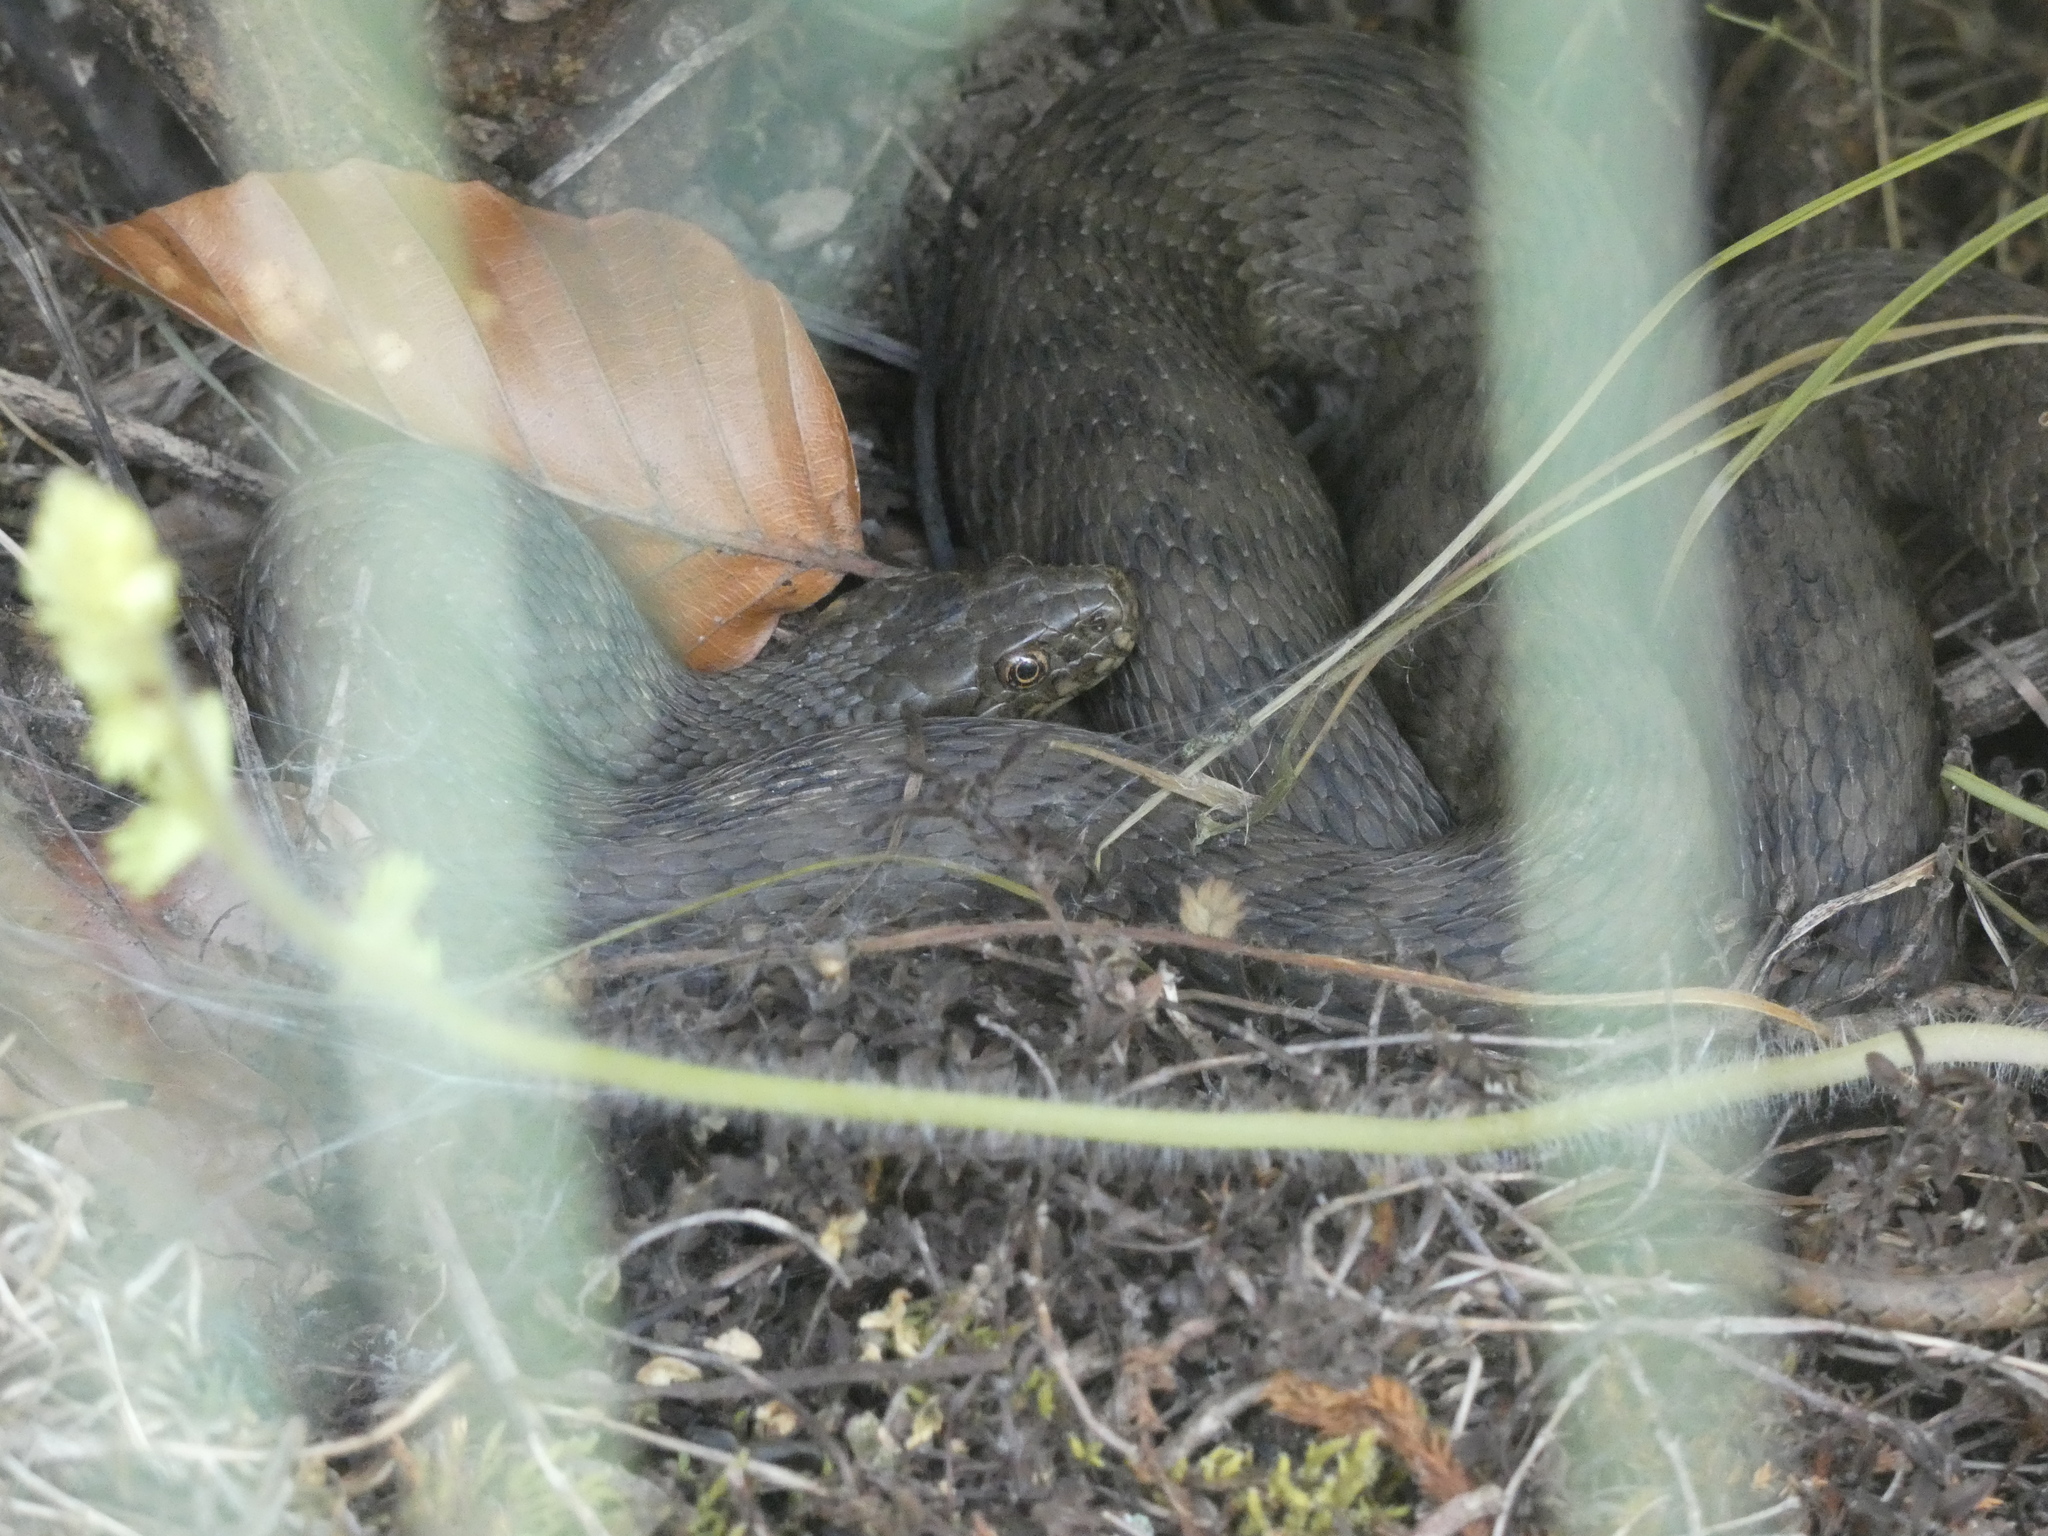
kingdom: Animalia
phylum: Chordata
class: Squamata
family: Colubridae
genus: Natrix
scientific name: Natrix maura
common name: Viperine water snake
